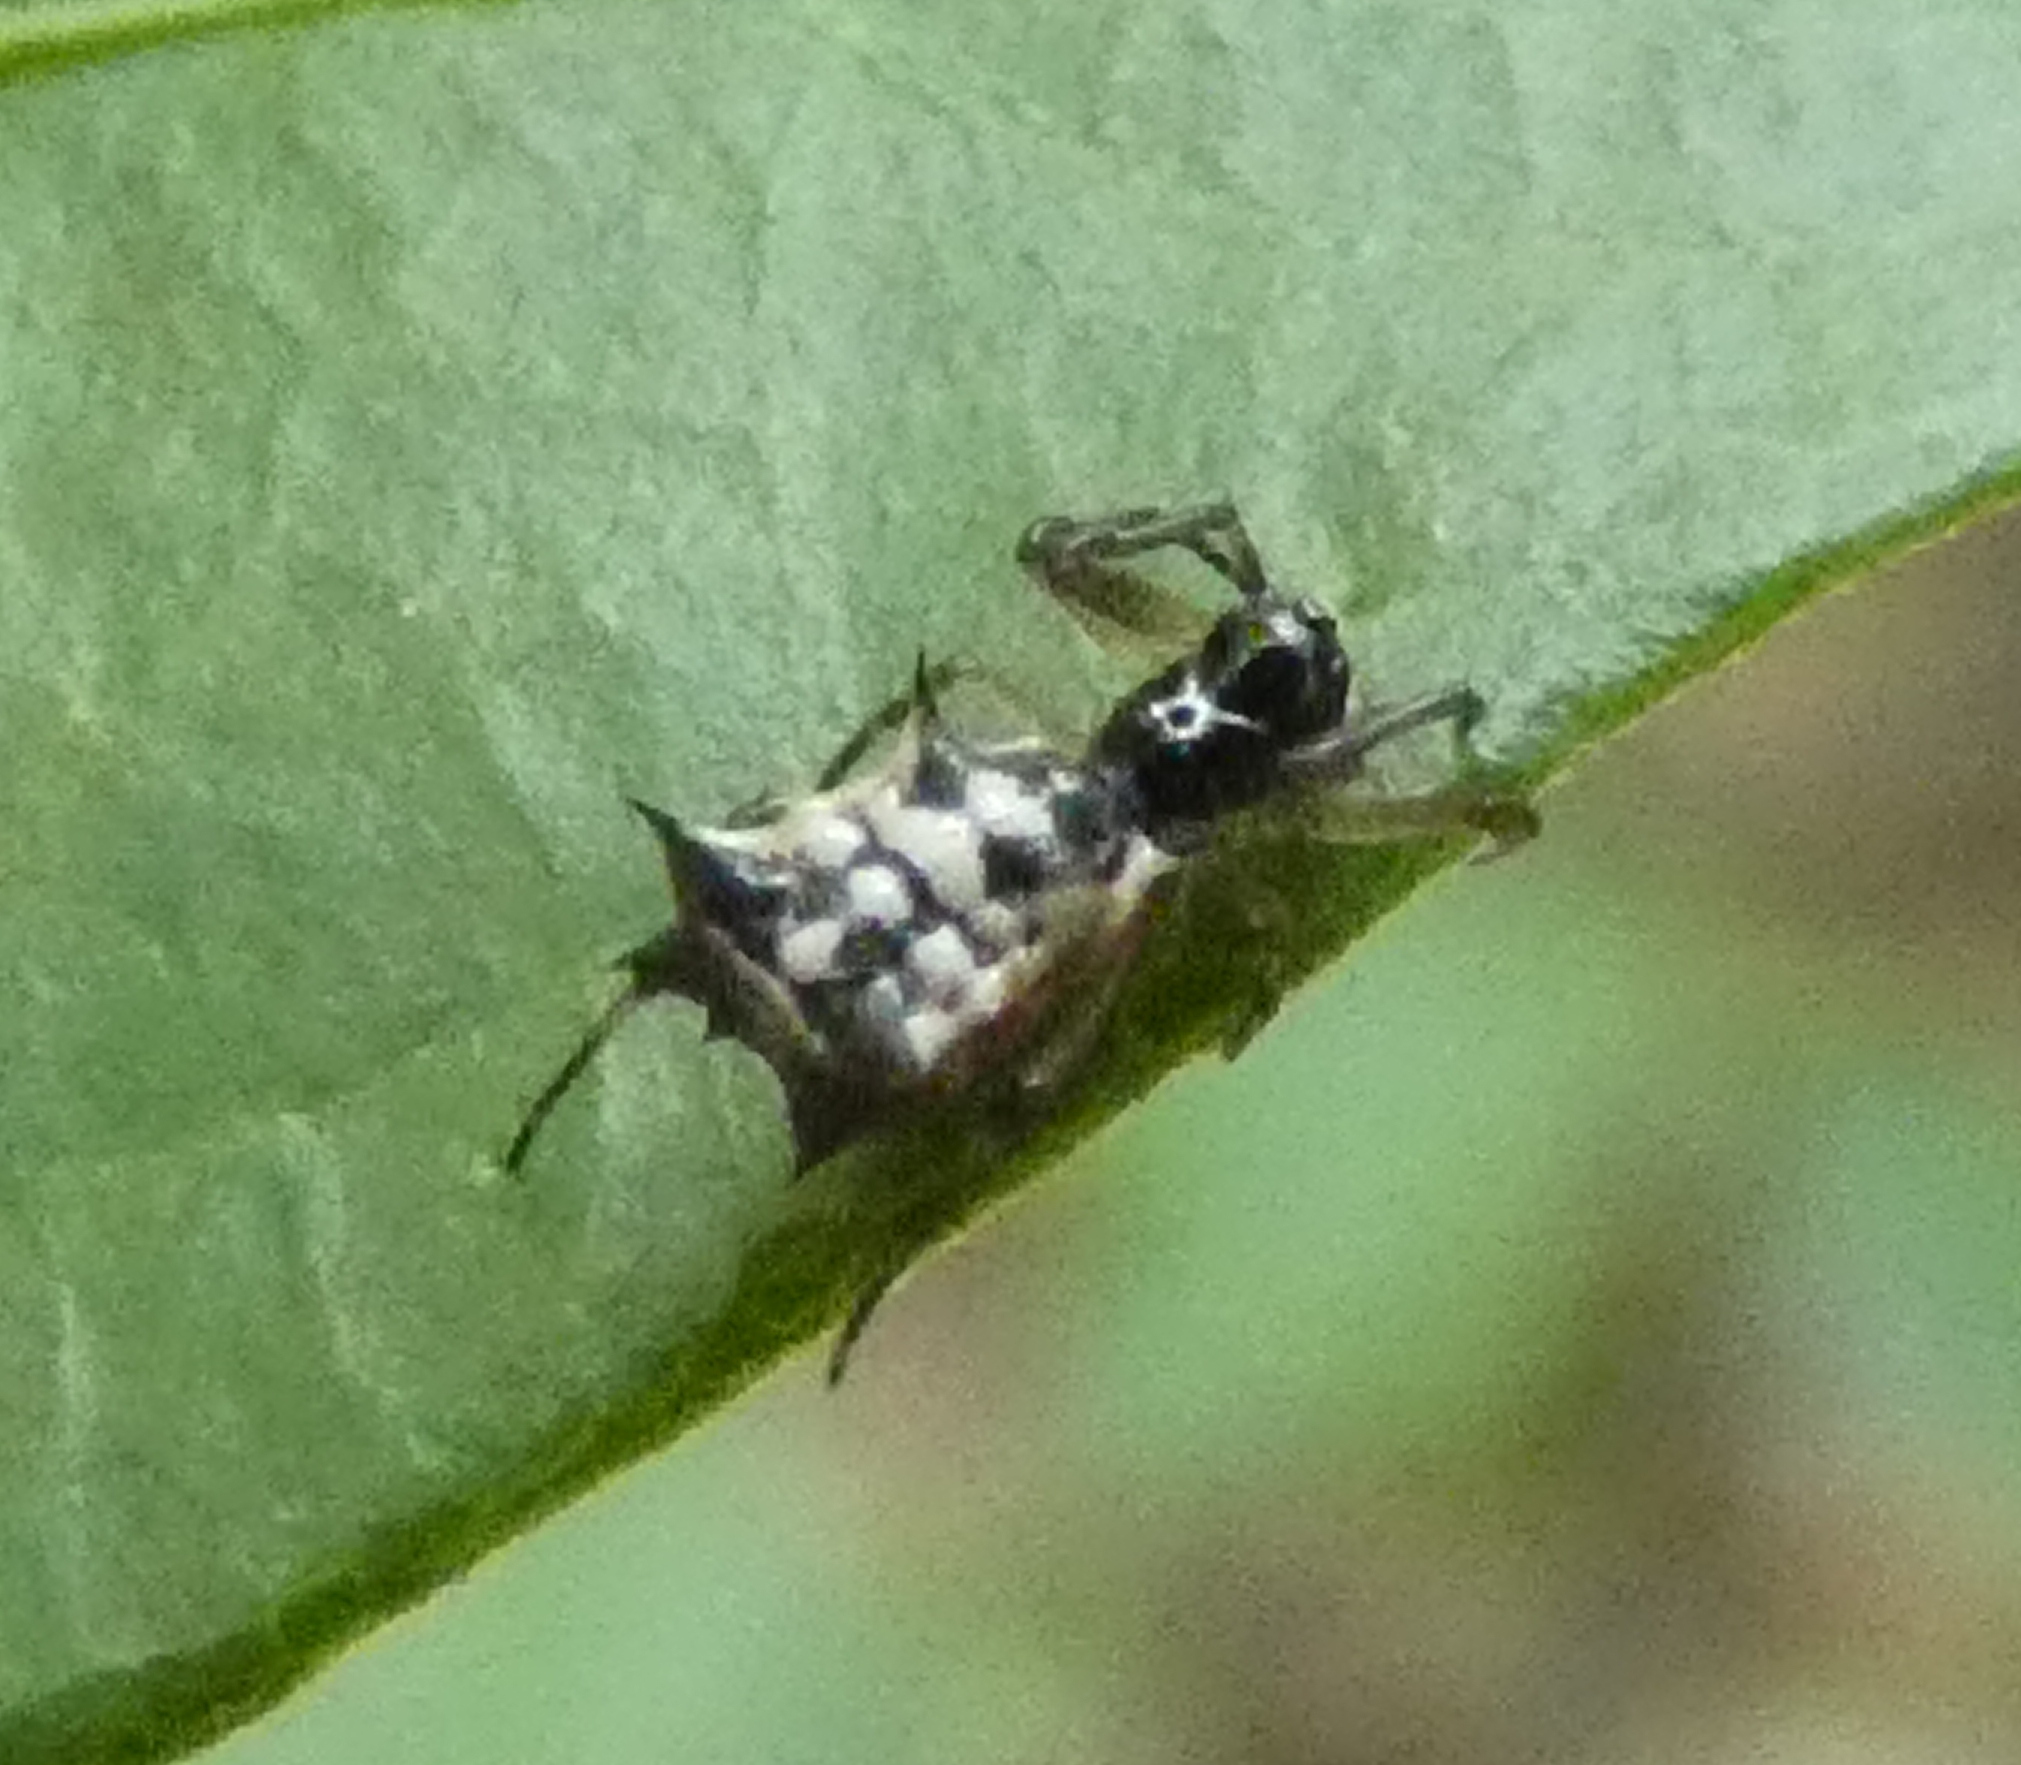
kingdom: Animalia
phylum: Arthropoda
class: Arachnida
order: Araneae
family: Araneidae
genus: Micrathena
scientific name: Micrathena picta
